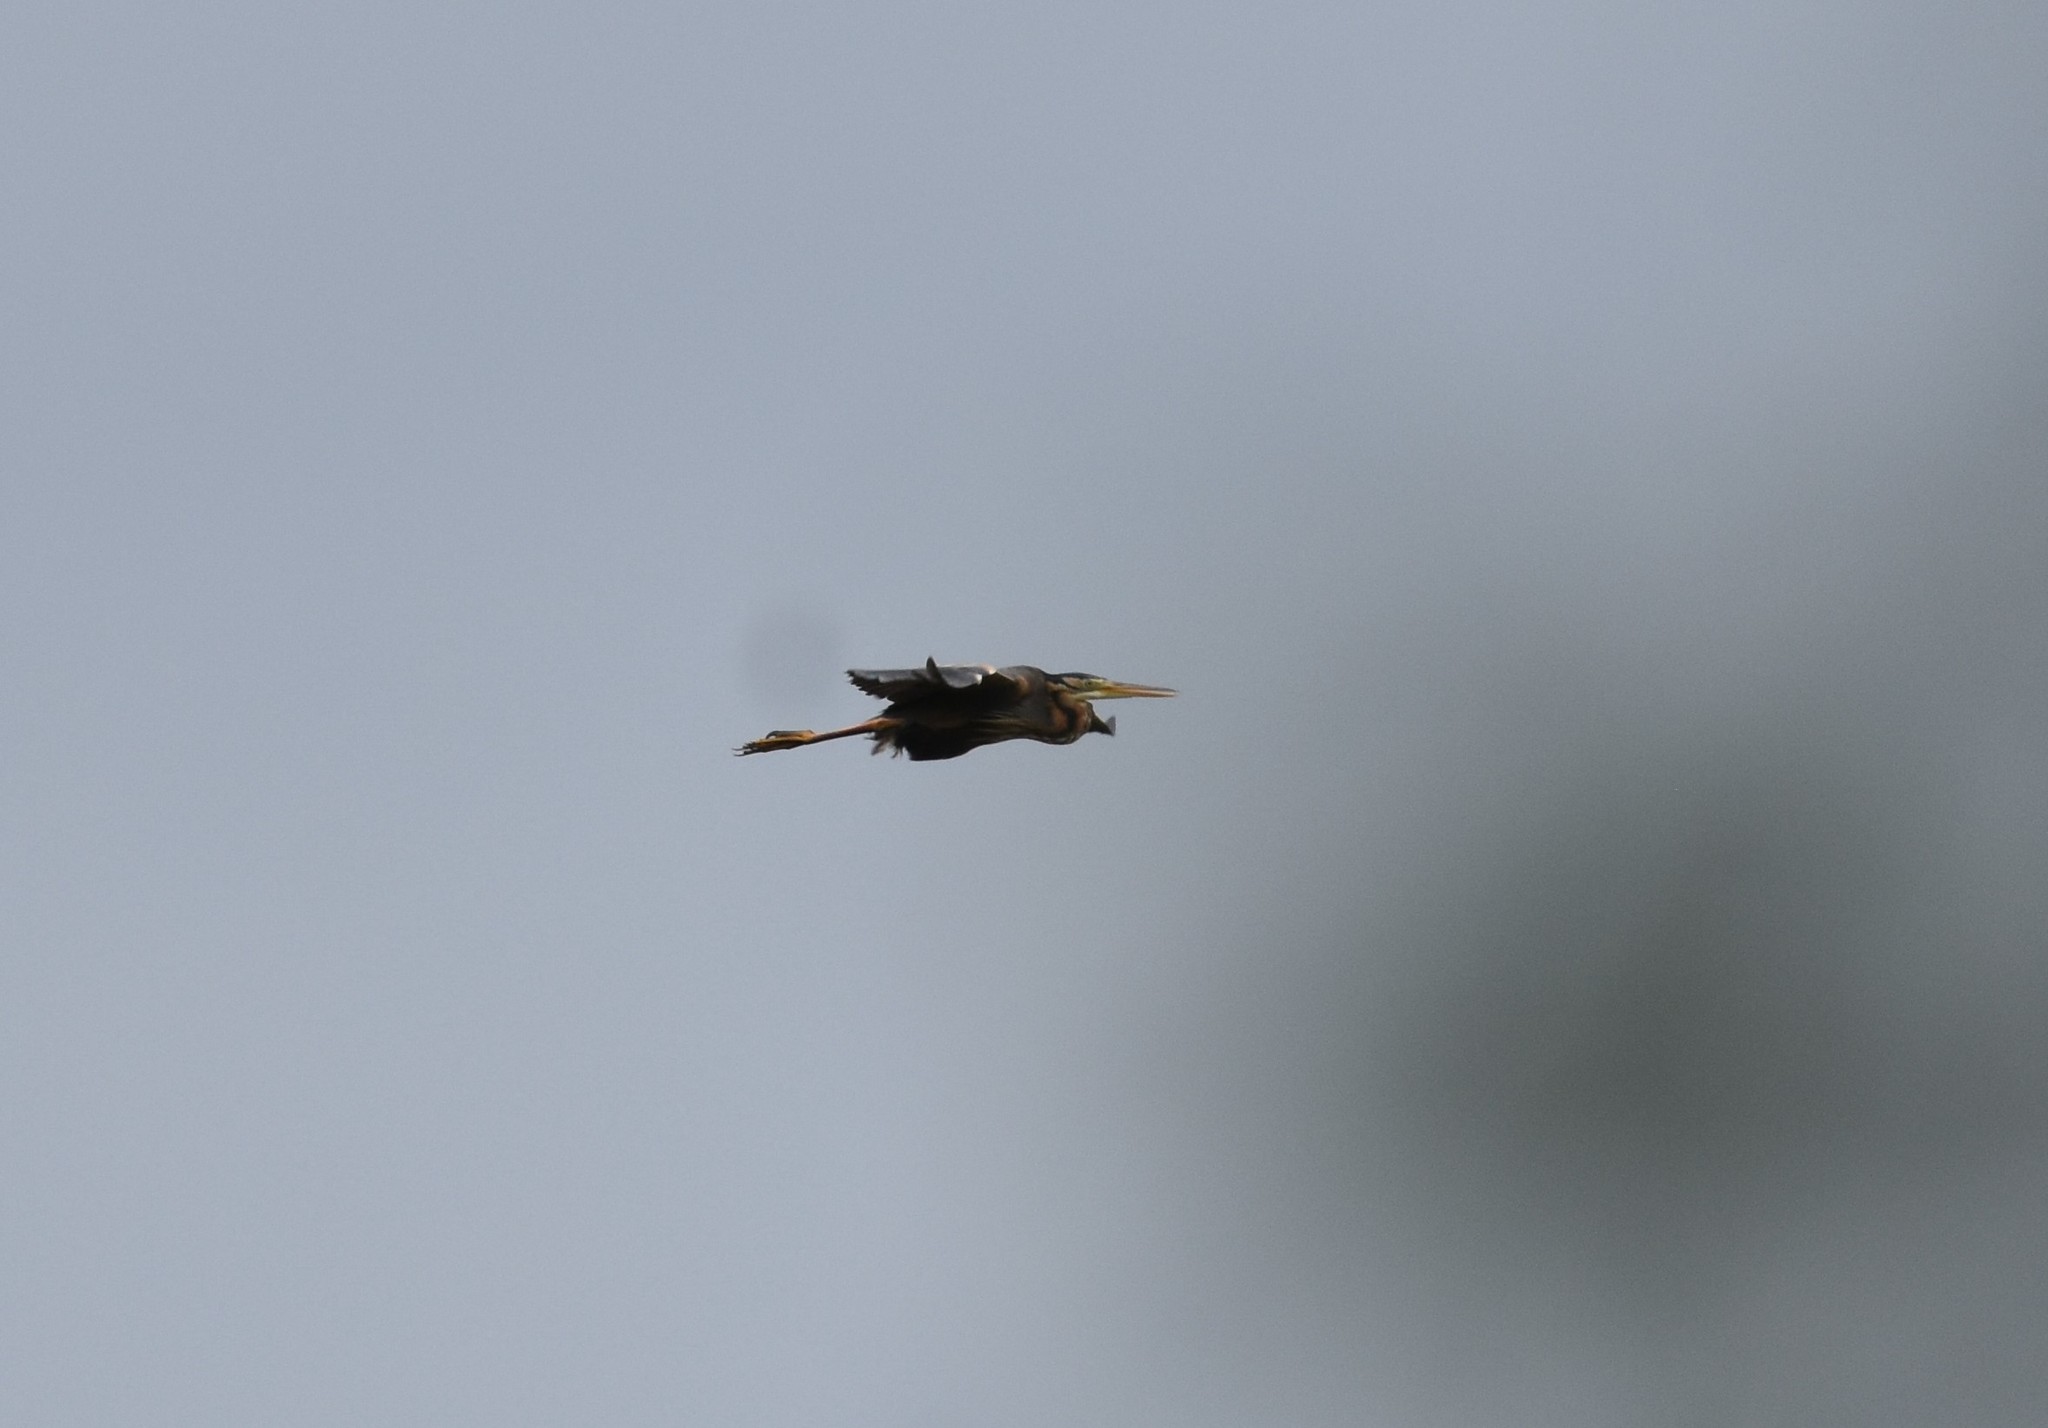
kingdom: Animalia
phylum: Chordata
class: Aves
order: Pelecaniformes
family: Ardeidae
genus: Ardea
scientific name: Ardea purpurea
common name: Purple heron
